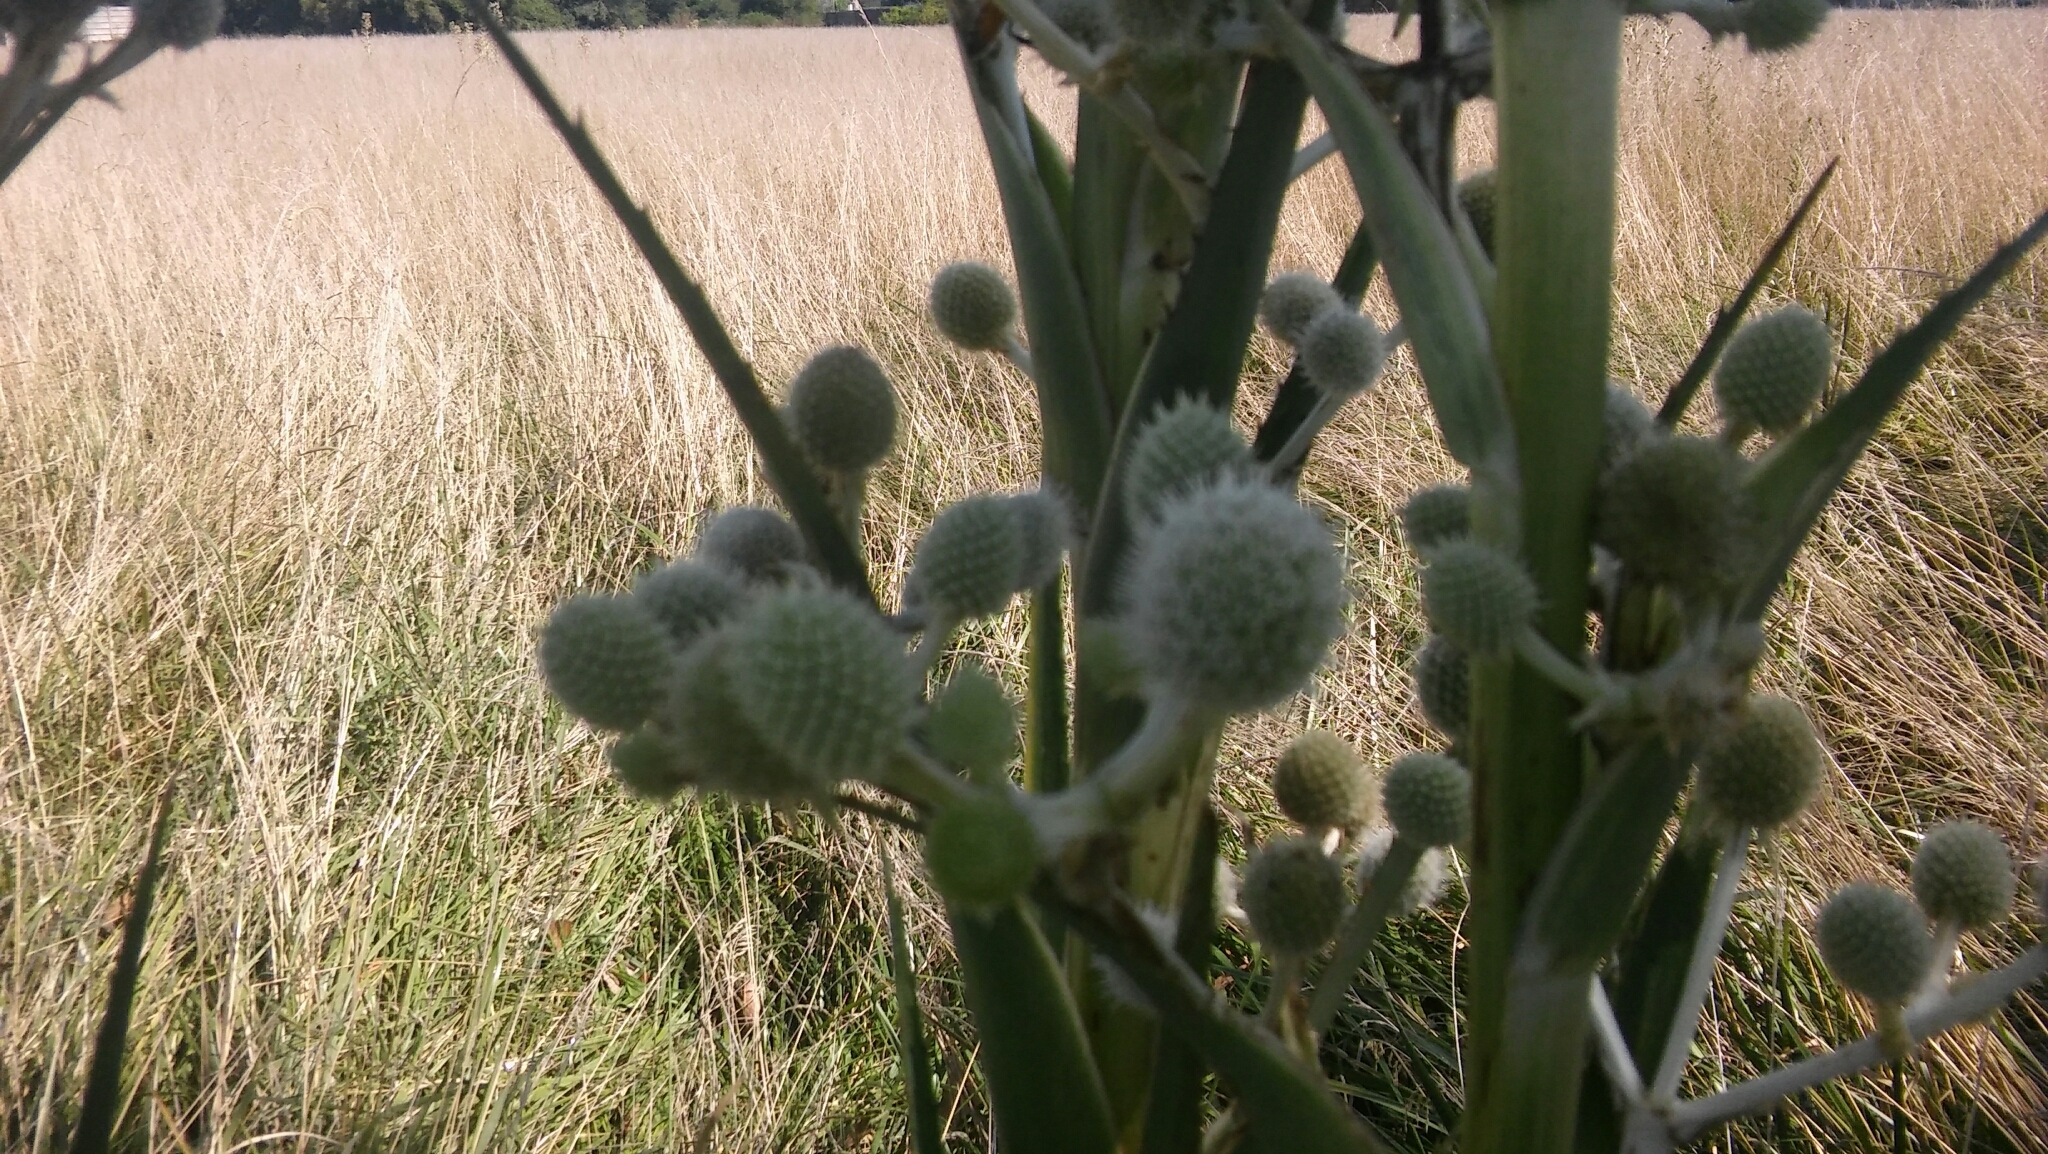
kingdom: Plantae
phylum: Tracheophyta
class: Magnoliopsida
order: Apiales
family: Apiaceae
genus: Eryngium
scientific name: Eryngium horridum
